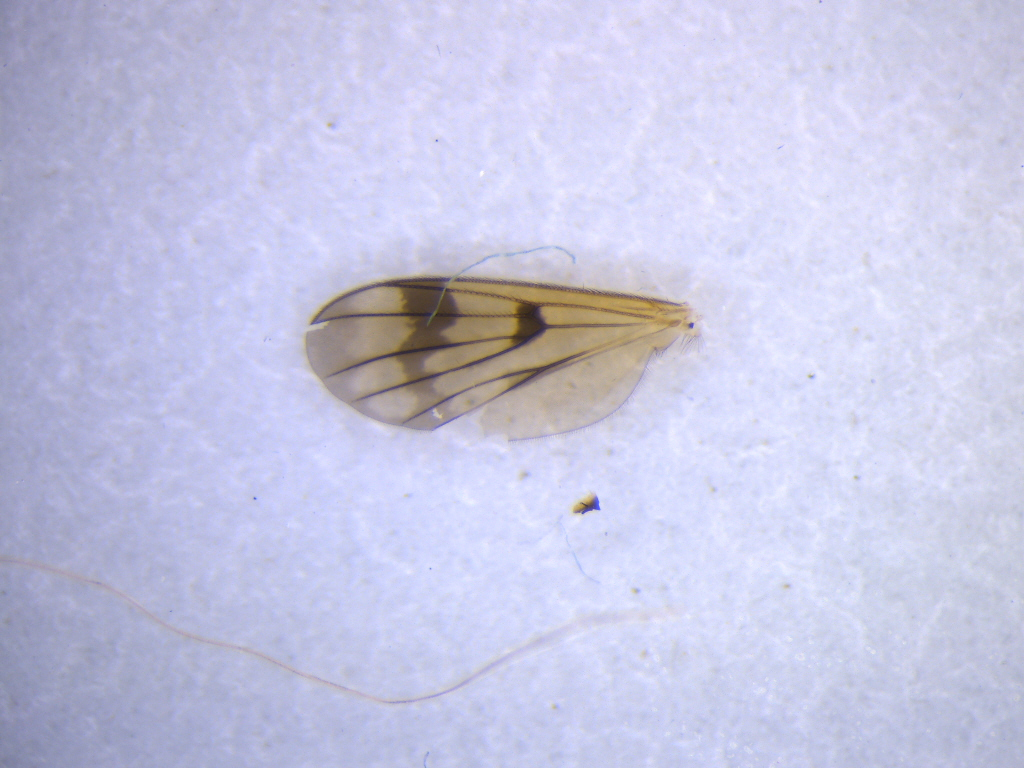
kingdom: Animalia
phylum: Arthropoda
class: Insecta
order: Diptera
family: Mycetophilidae
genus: Mycetophila
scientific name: Mycetophila consobrina
